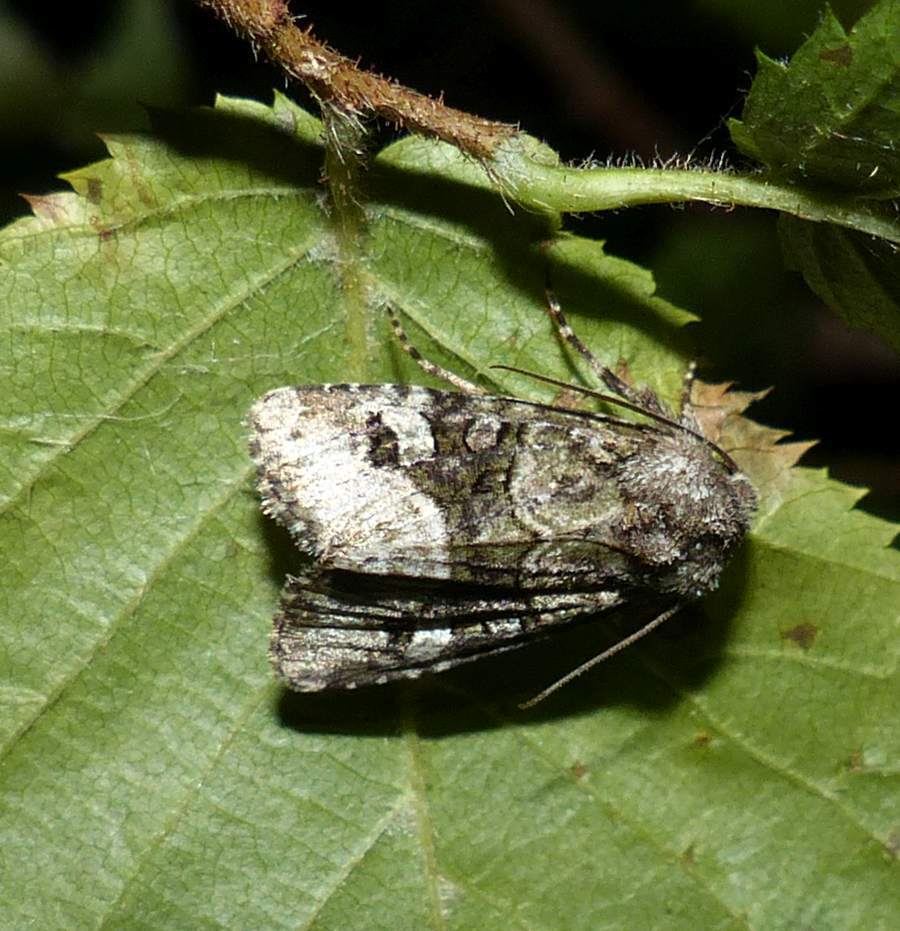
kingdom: Animalia
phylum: Arthropoda
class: Insecta
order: Lepidoptera
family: Noctuidae
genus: Lacinipolia
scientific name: Lacinipolia olivacea
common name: Olive arches moth
